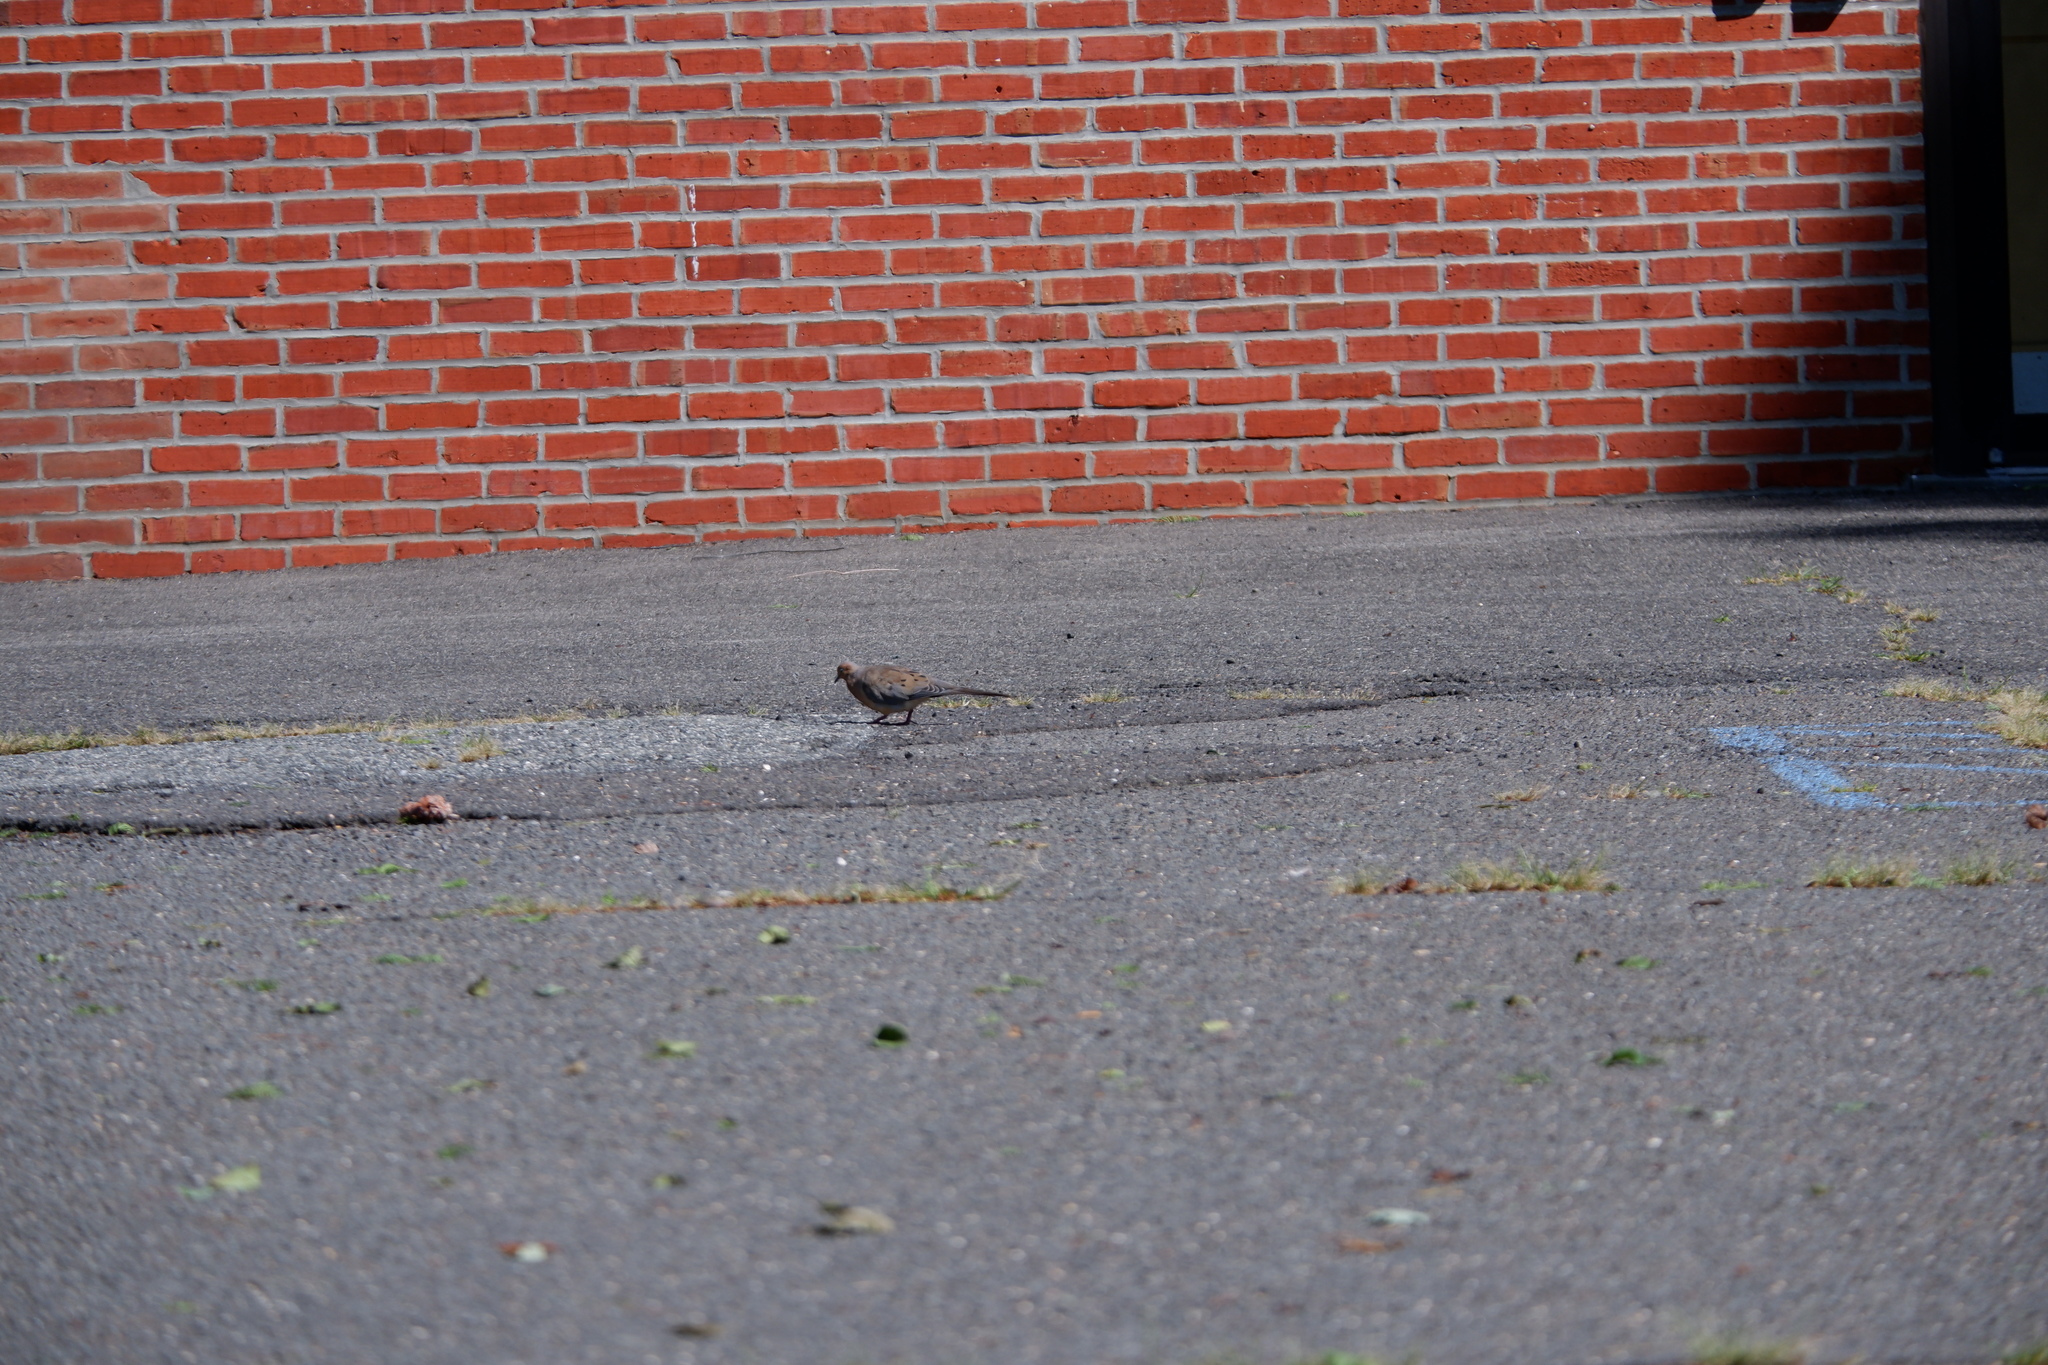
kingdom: Animalia
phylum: Chordata
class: Aves
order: Columbiformes
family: Columbidae
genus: Zenaida
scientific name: Zenaida macroura
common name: Mourning dove
